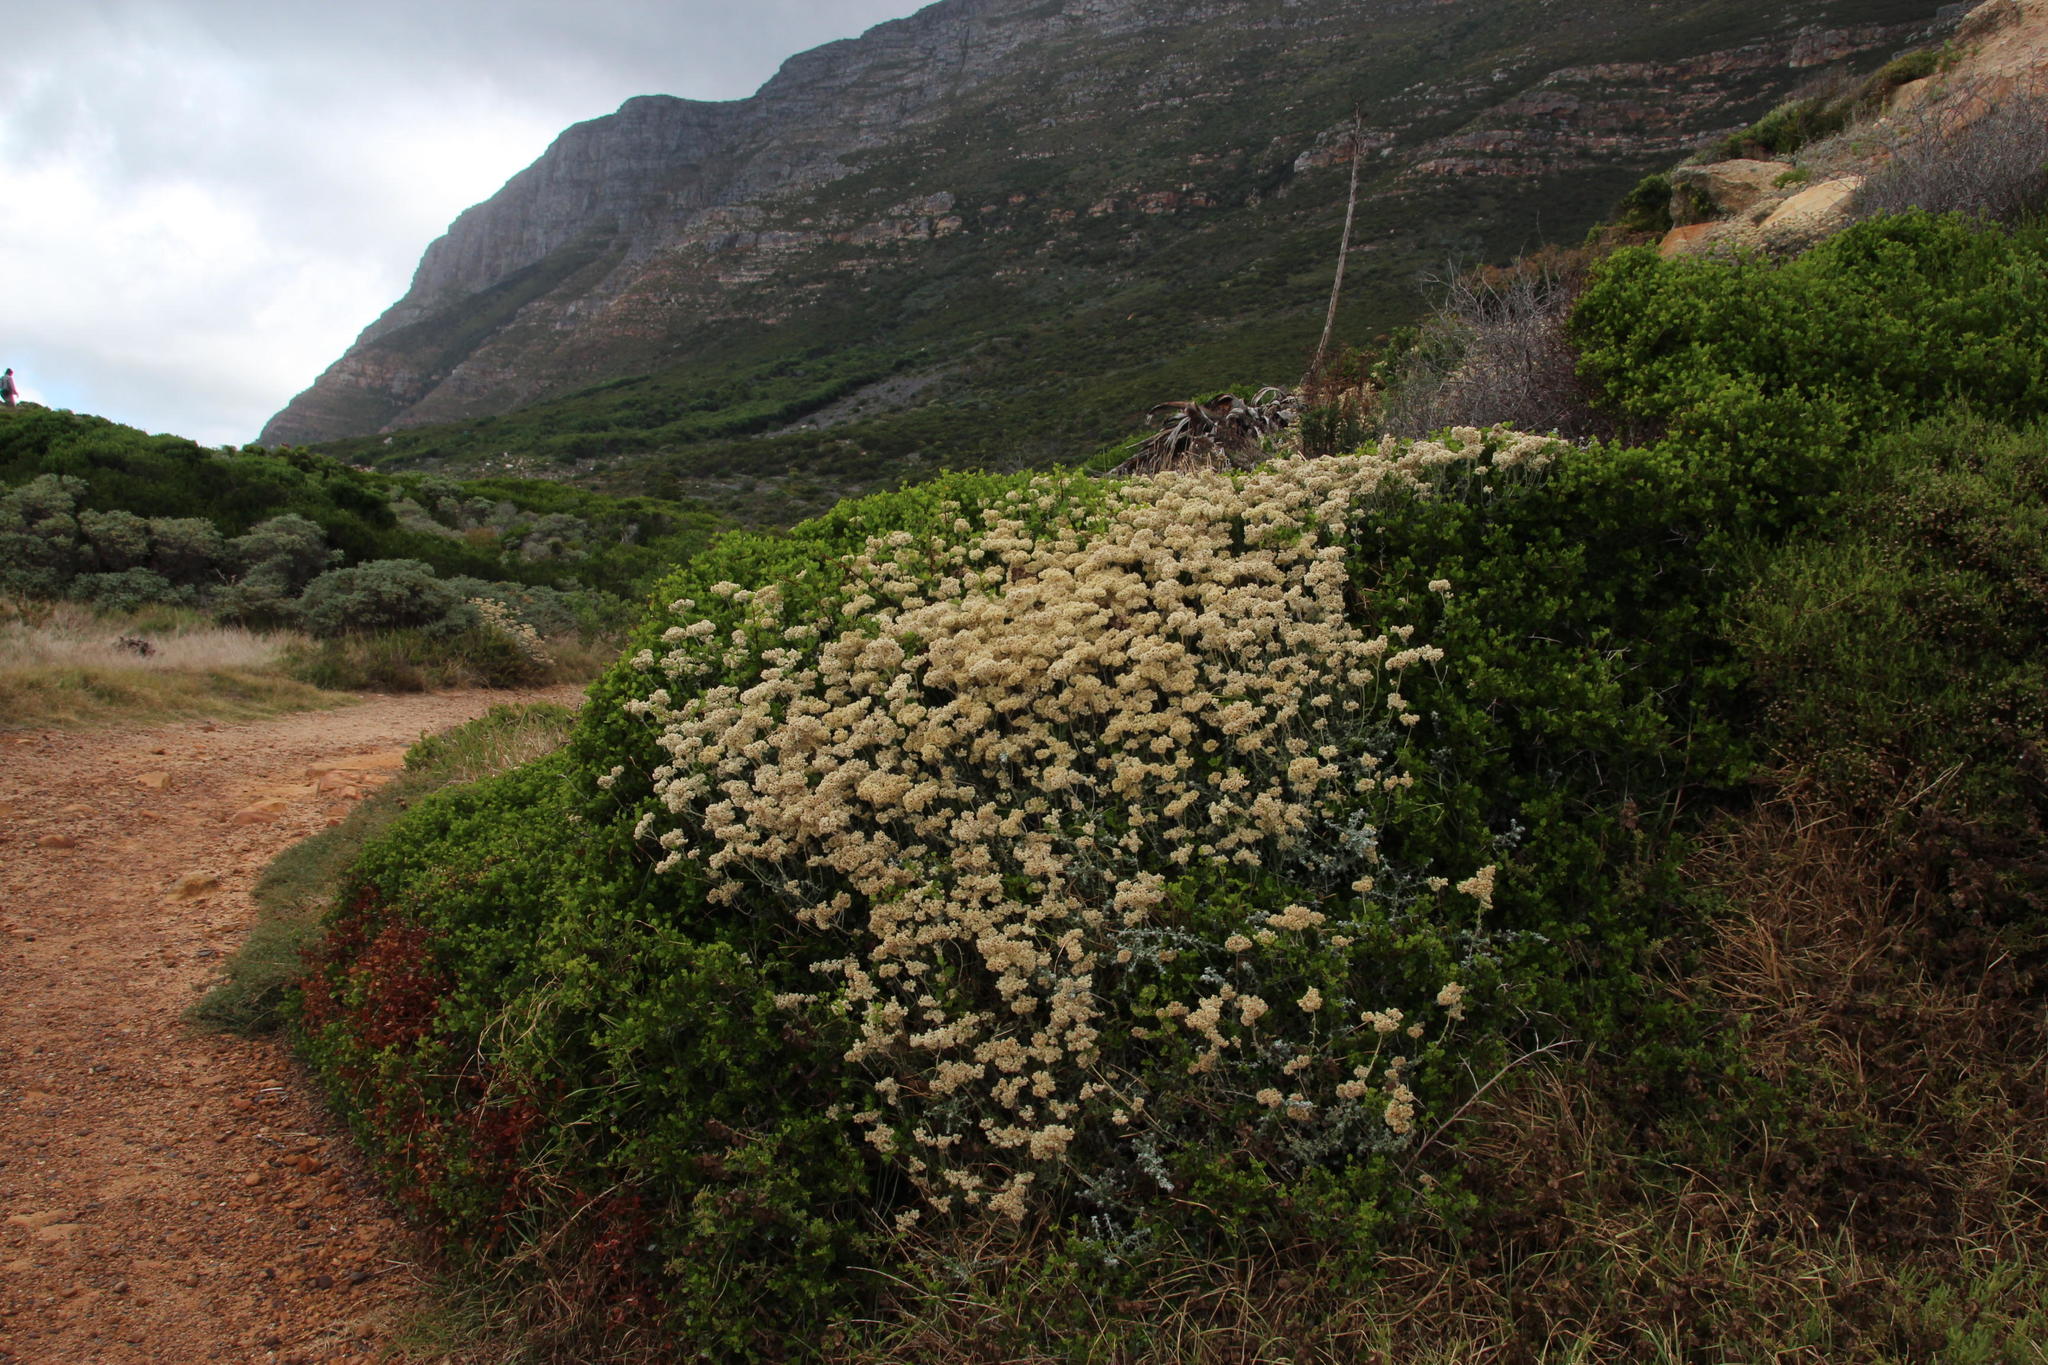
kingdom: Plantae
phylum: Tracheophyta
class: Magnoliopsida
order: Asterales
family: Asteraceae
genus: Helichrysum
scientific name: Helichrysum patulum
